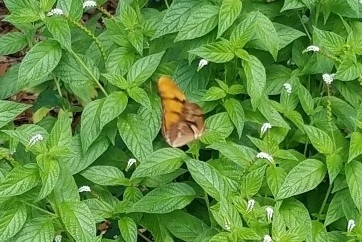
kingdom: Animalia
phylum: Arthropoda
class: Insecta
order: Lepidoptera
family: Nymphalidae
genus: Dryas
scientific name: Dryas iulia
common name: Flambeau
